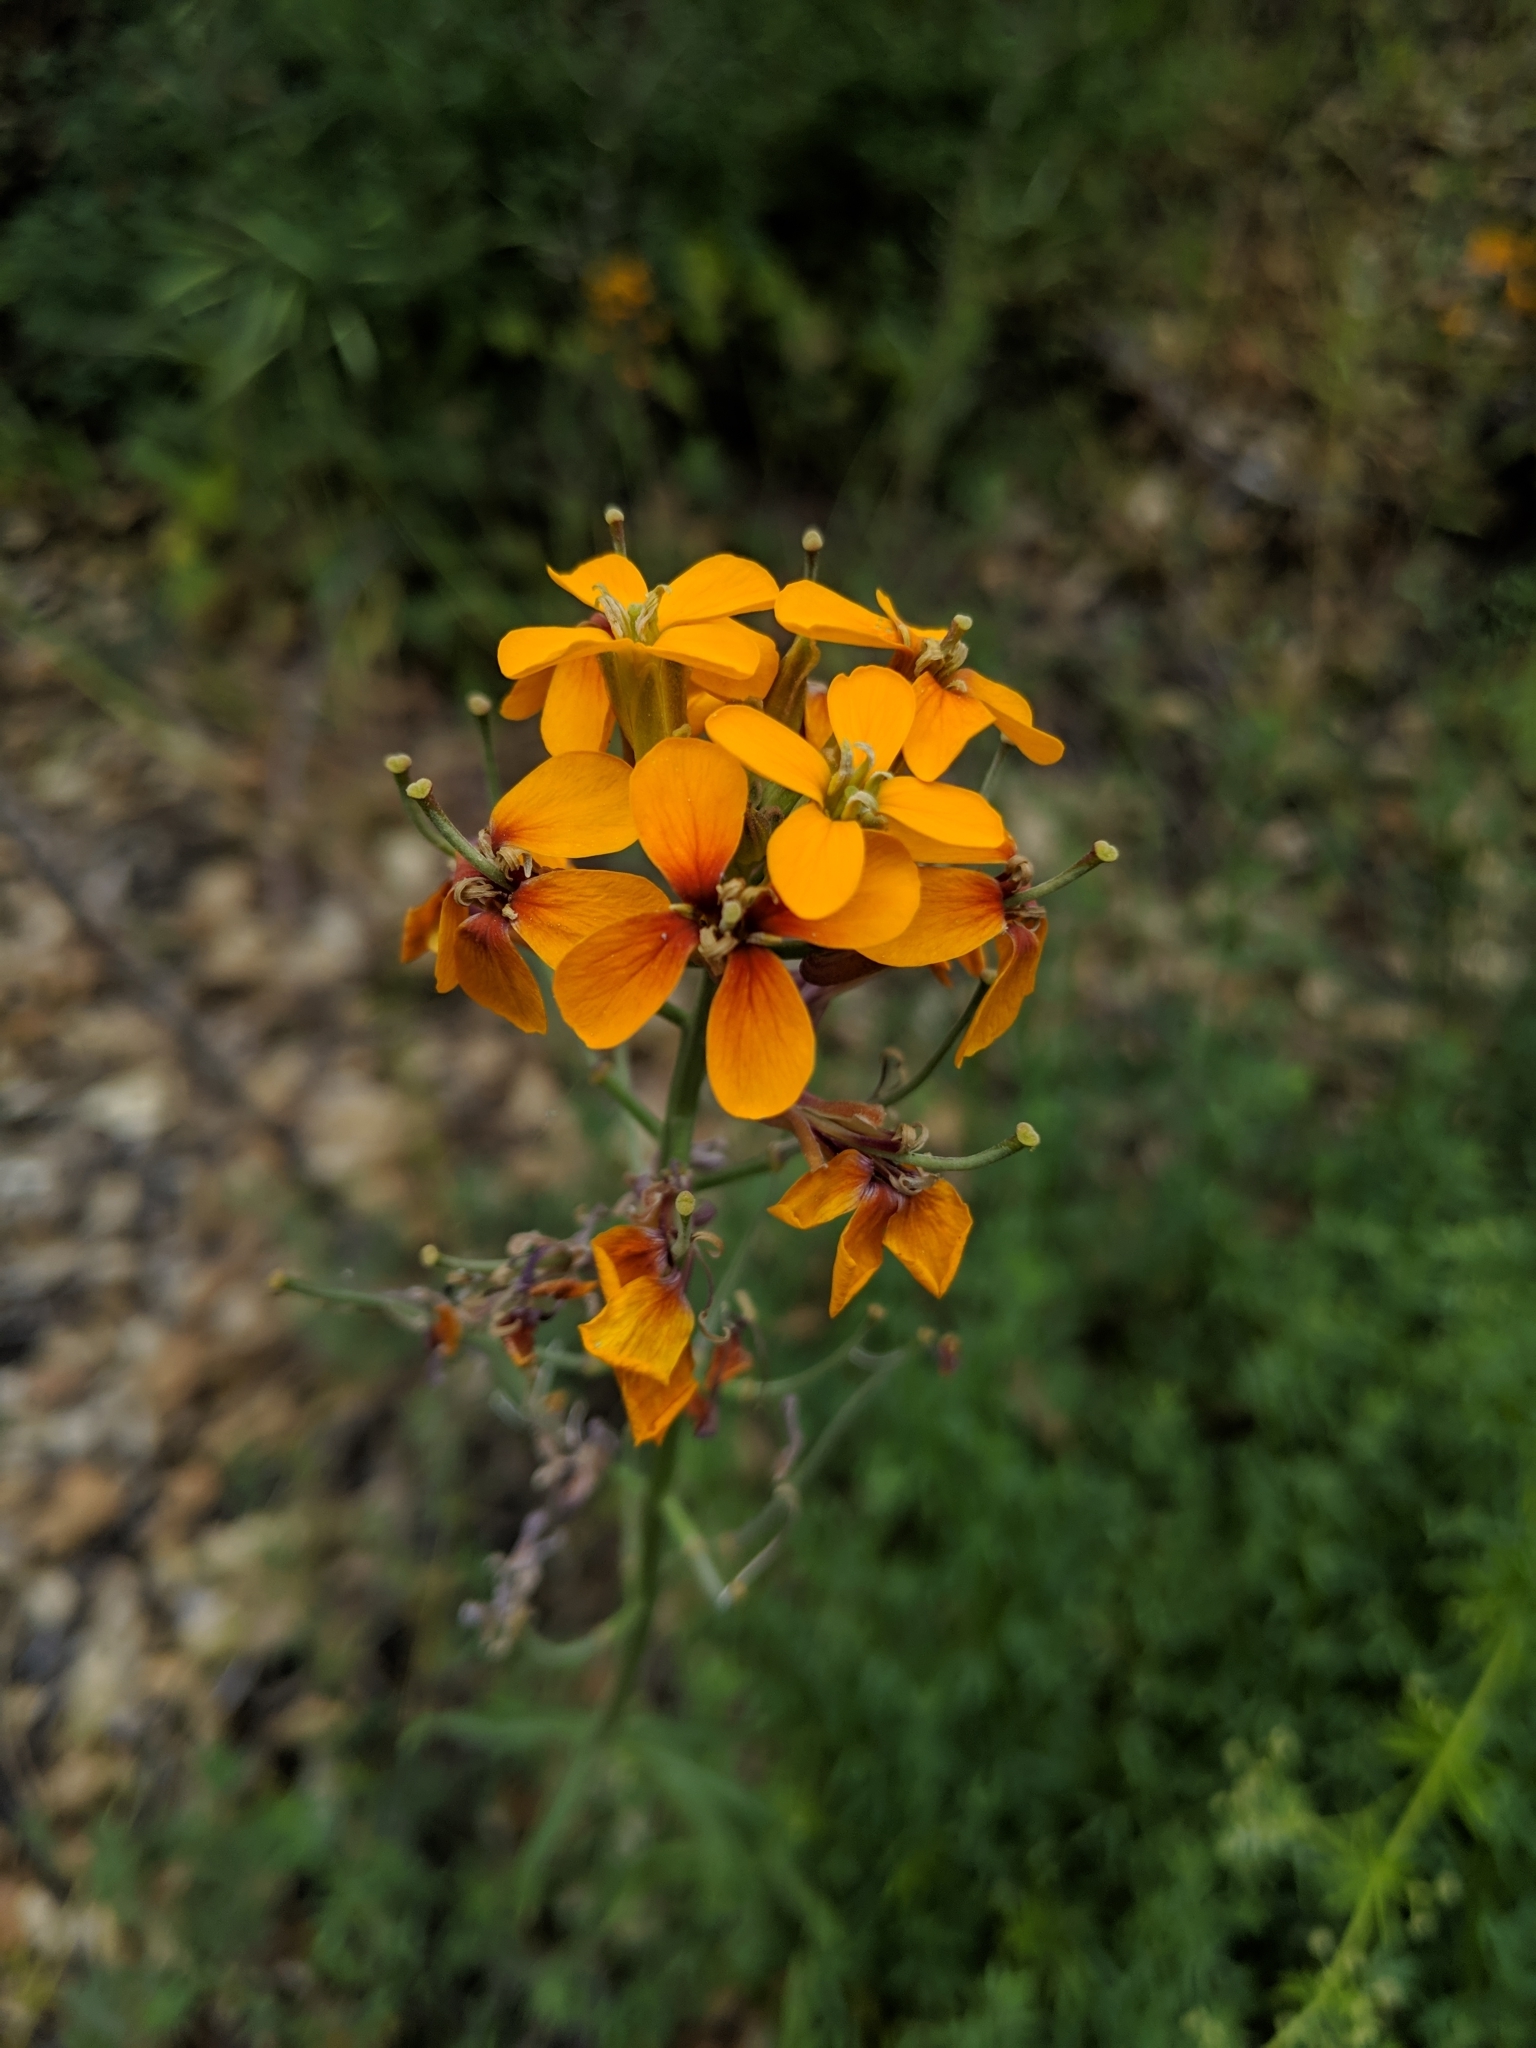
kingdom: Plantae
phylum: Tracheophyta
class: Magnoliopsida
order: Brassicales
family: Brassicaceae
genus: Erysimum
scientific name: Erysimum capitatum
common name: Western wallflower
